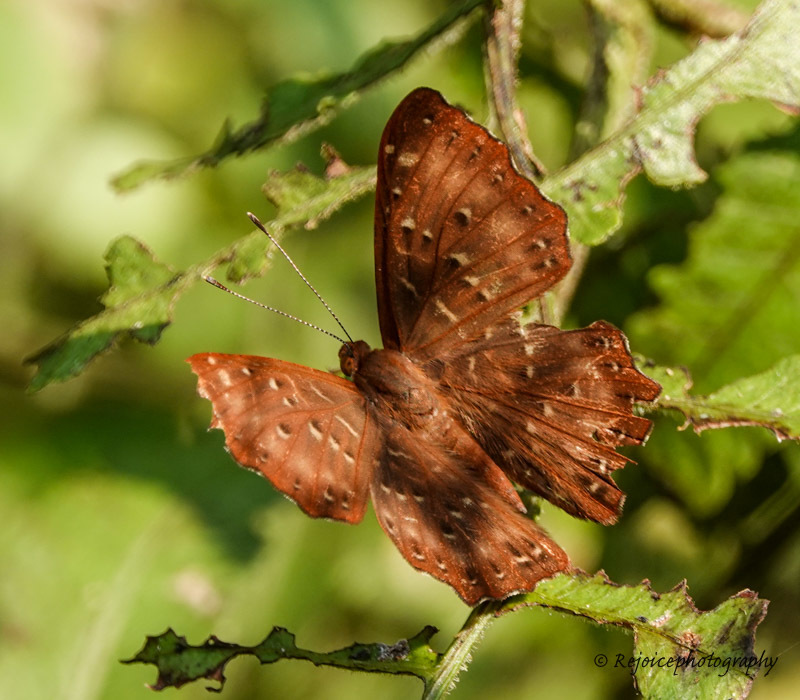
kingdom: Animalia
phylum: Arthropoda
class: Insecta
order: Lepidoptera
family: Riodinidae
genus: Zemeros
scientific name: Zemeros flegyas
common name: Punchinello
